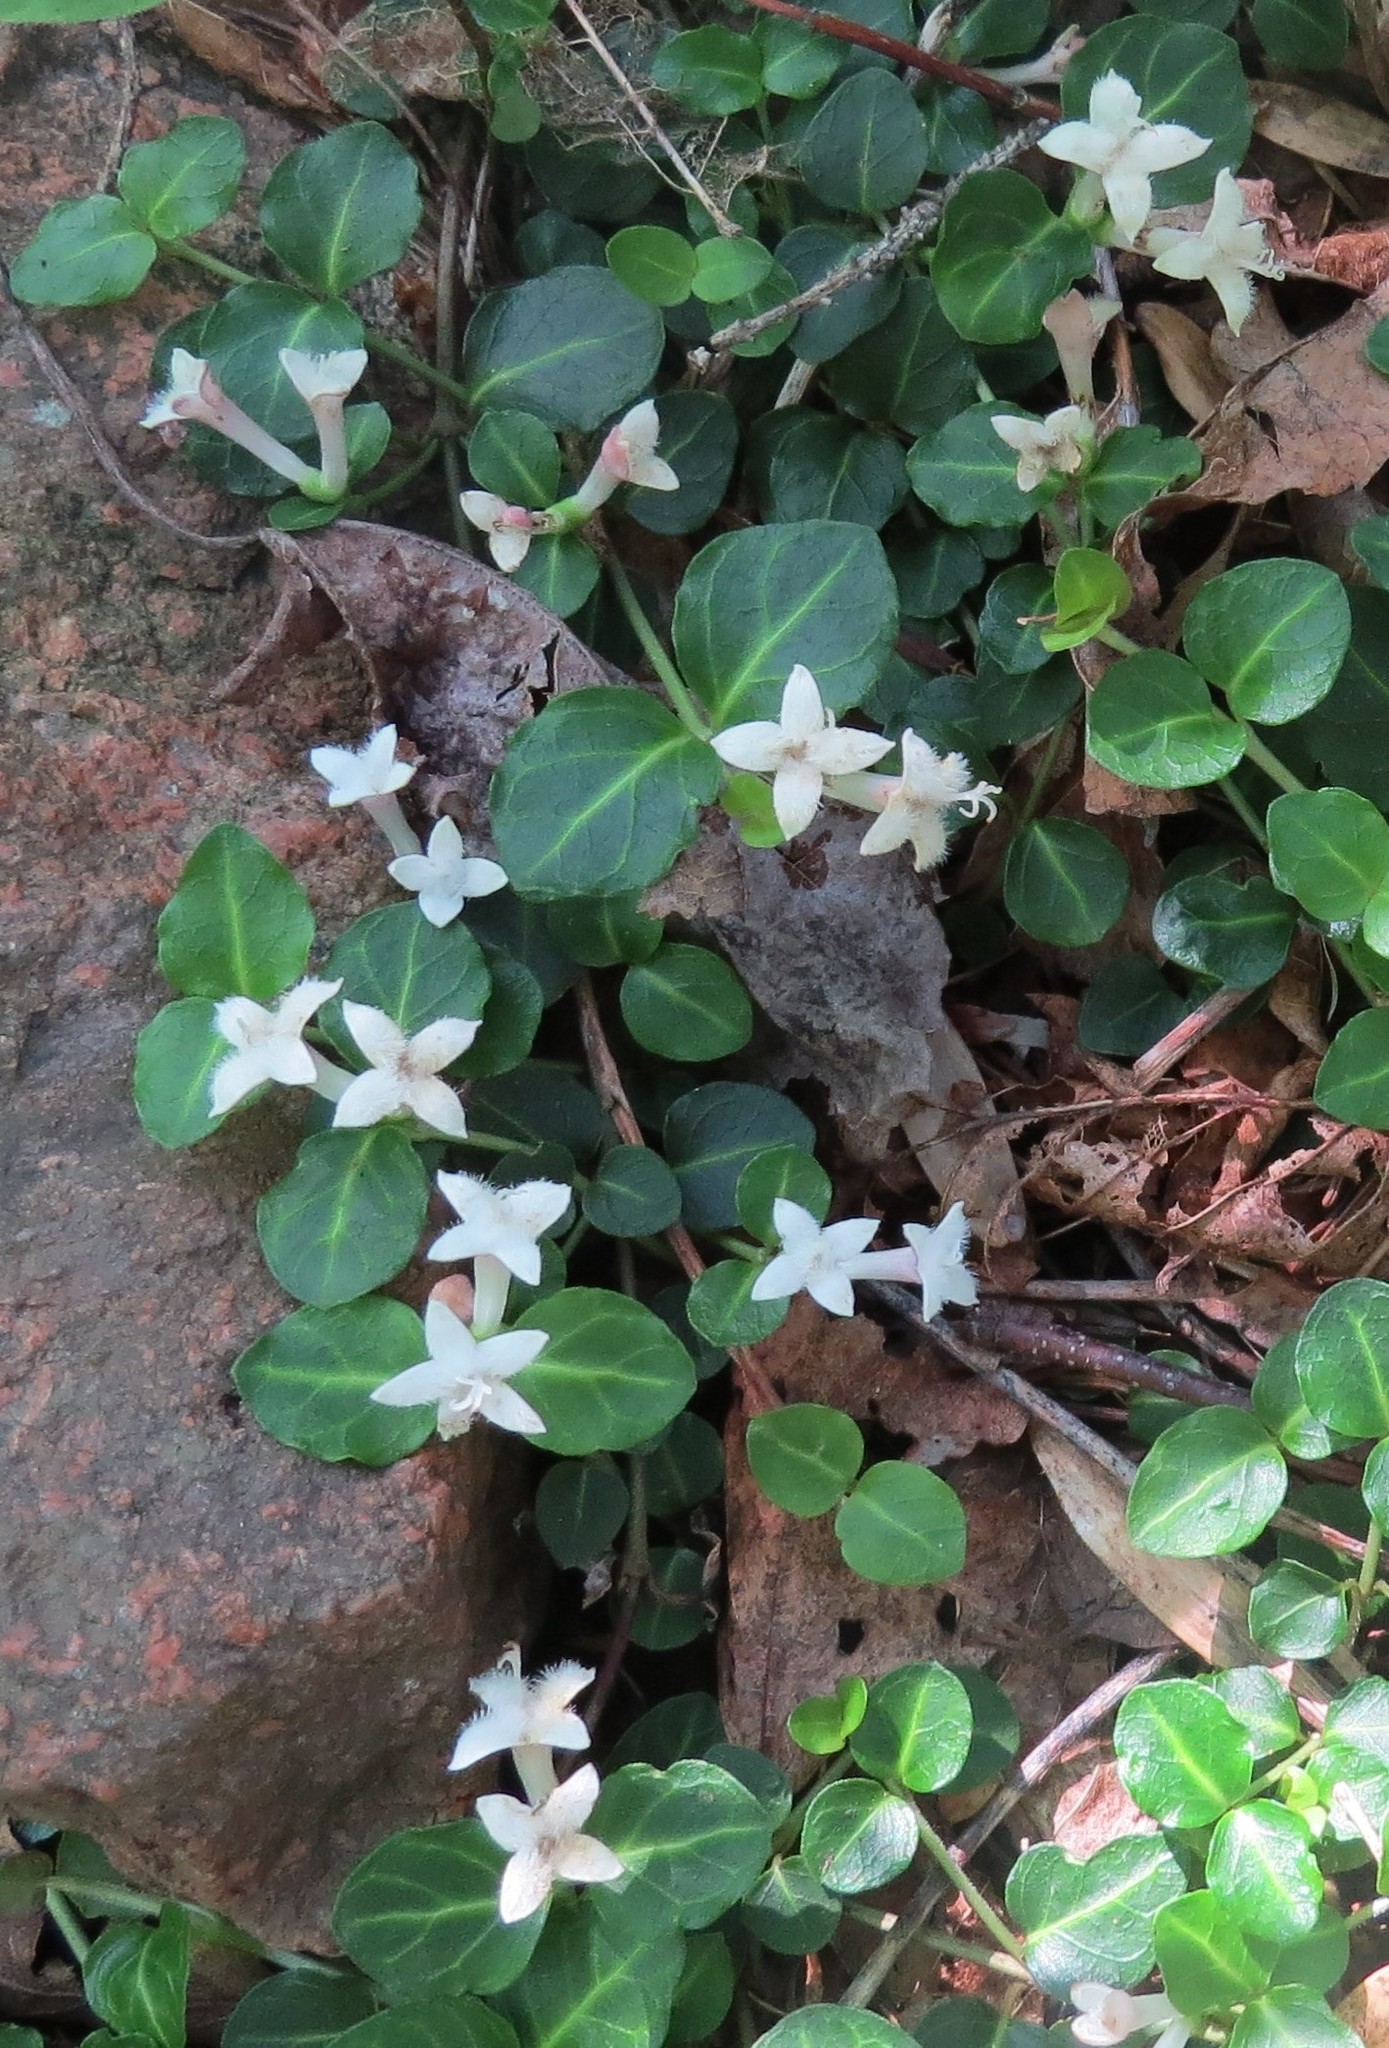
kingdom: Plantae
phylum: Tracheophyta
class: Magnoliopsida
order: Gentianales
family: Rubiaceae
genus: Mitchella
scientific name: Mitchella repens
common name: Partridge-berry
